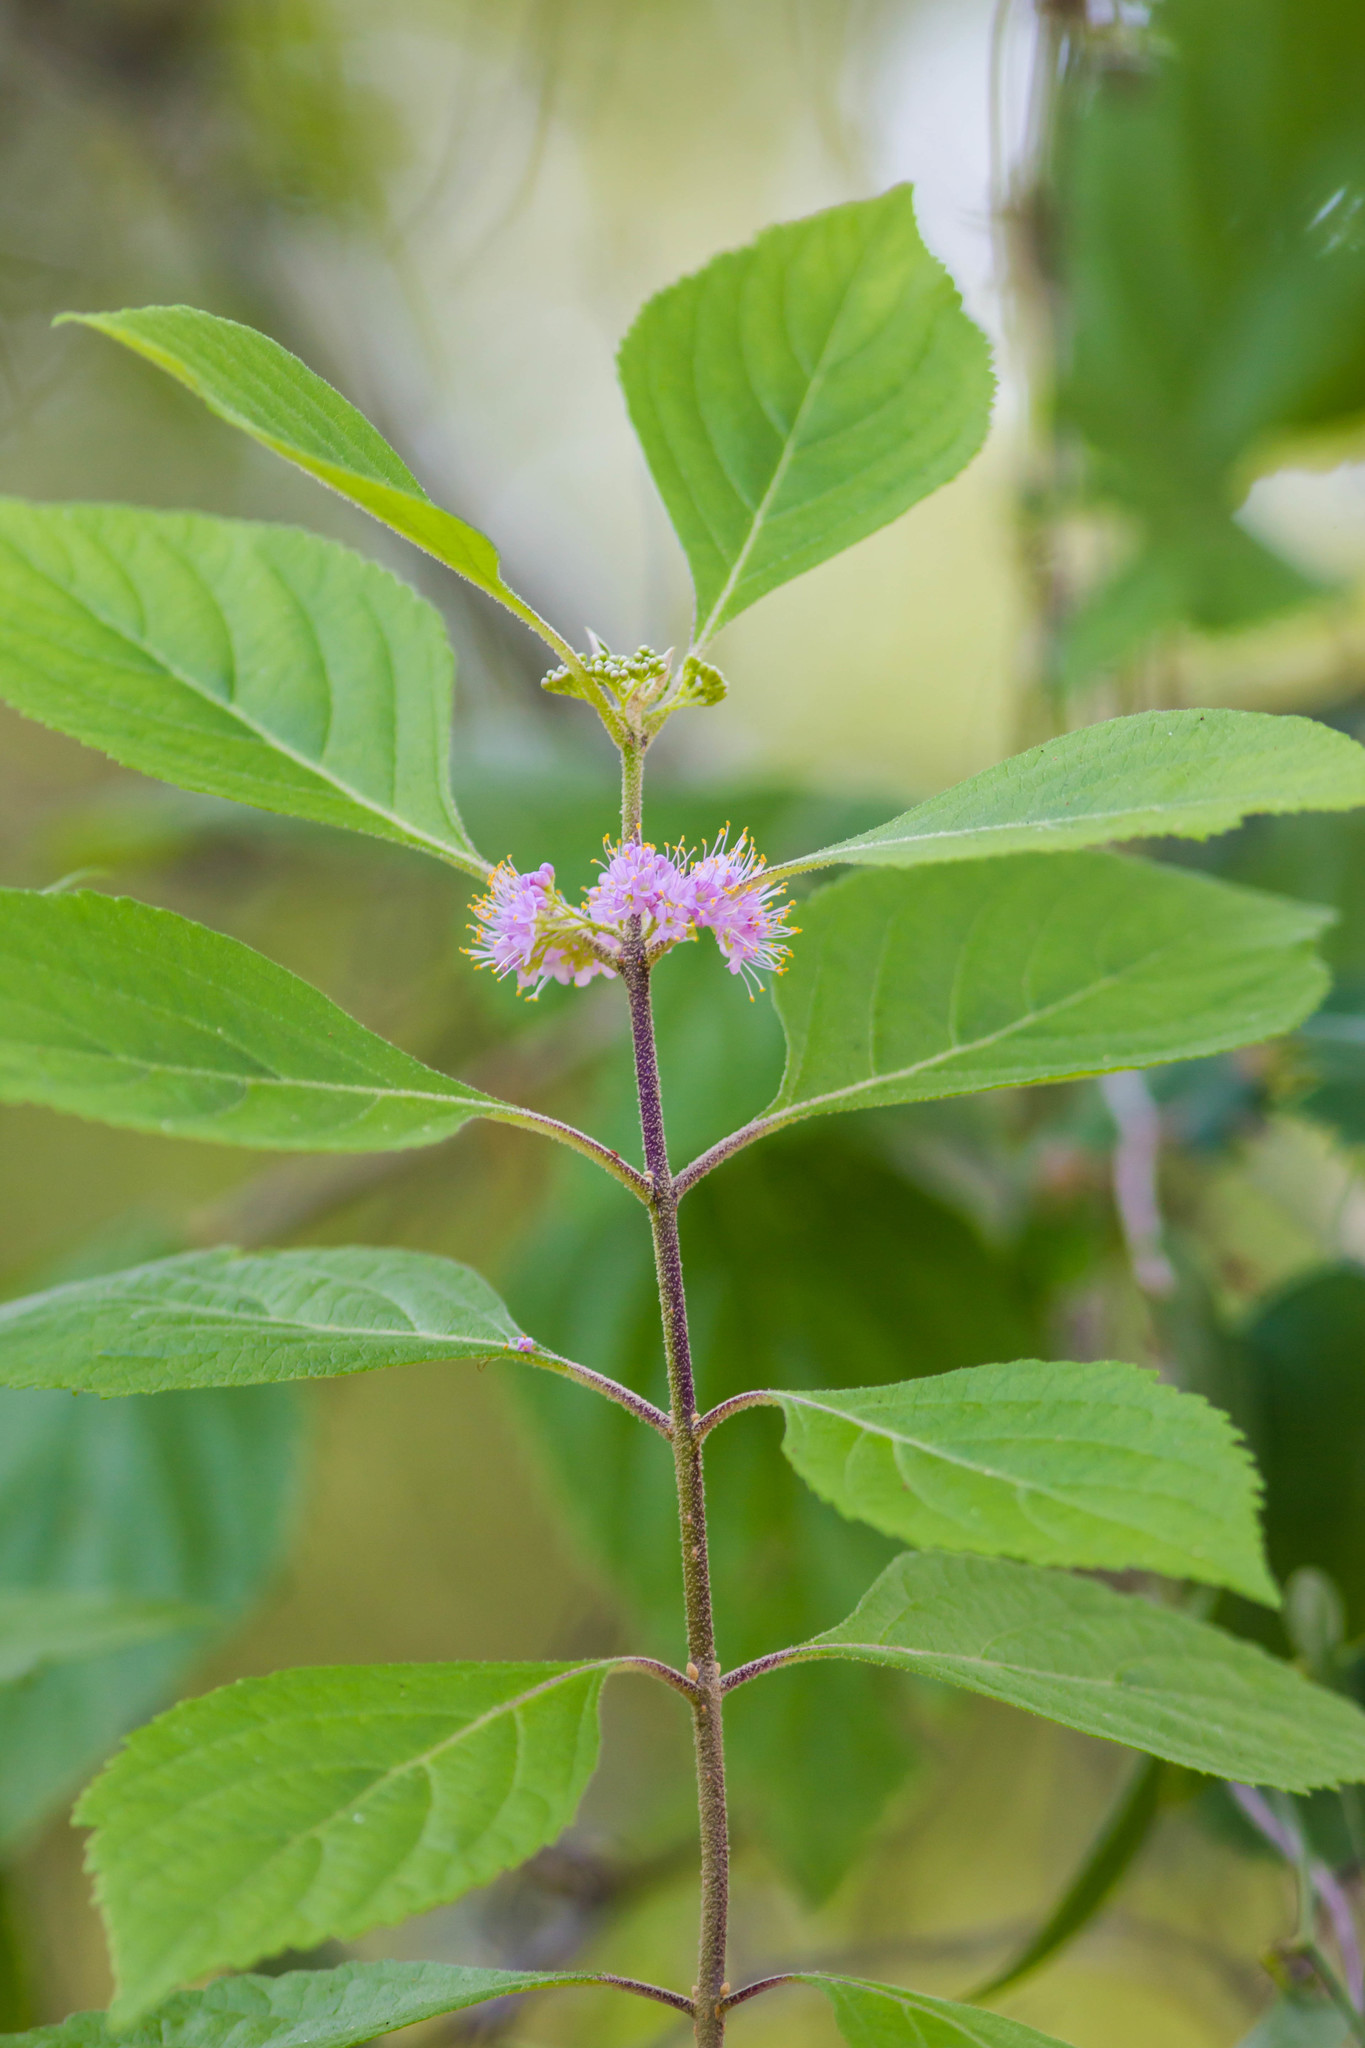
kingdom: Plantae
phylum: Tracheophyta
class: Magnoliopsida
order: Lamiales
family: Lamiaceae
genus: Callicarpa
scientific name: Callicarpa americana
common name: American beautyberry
